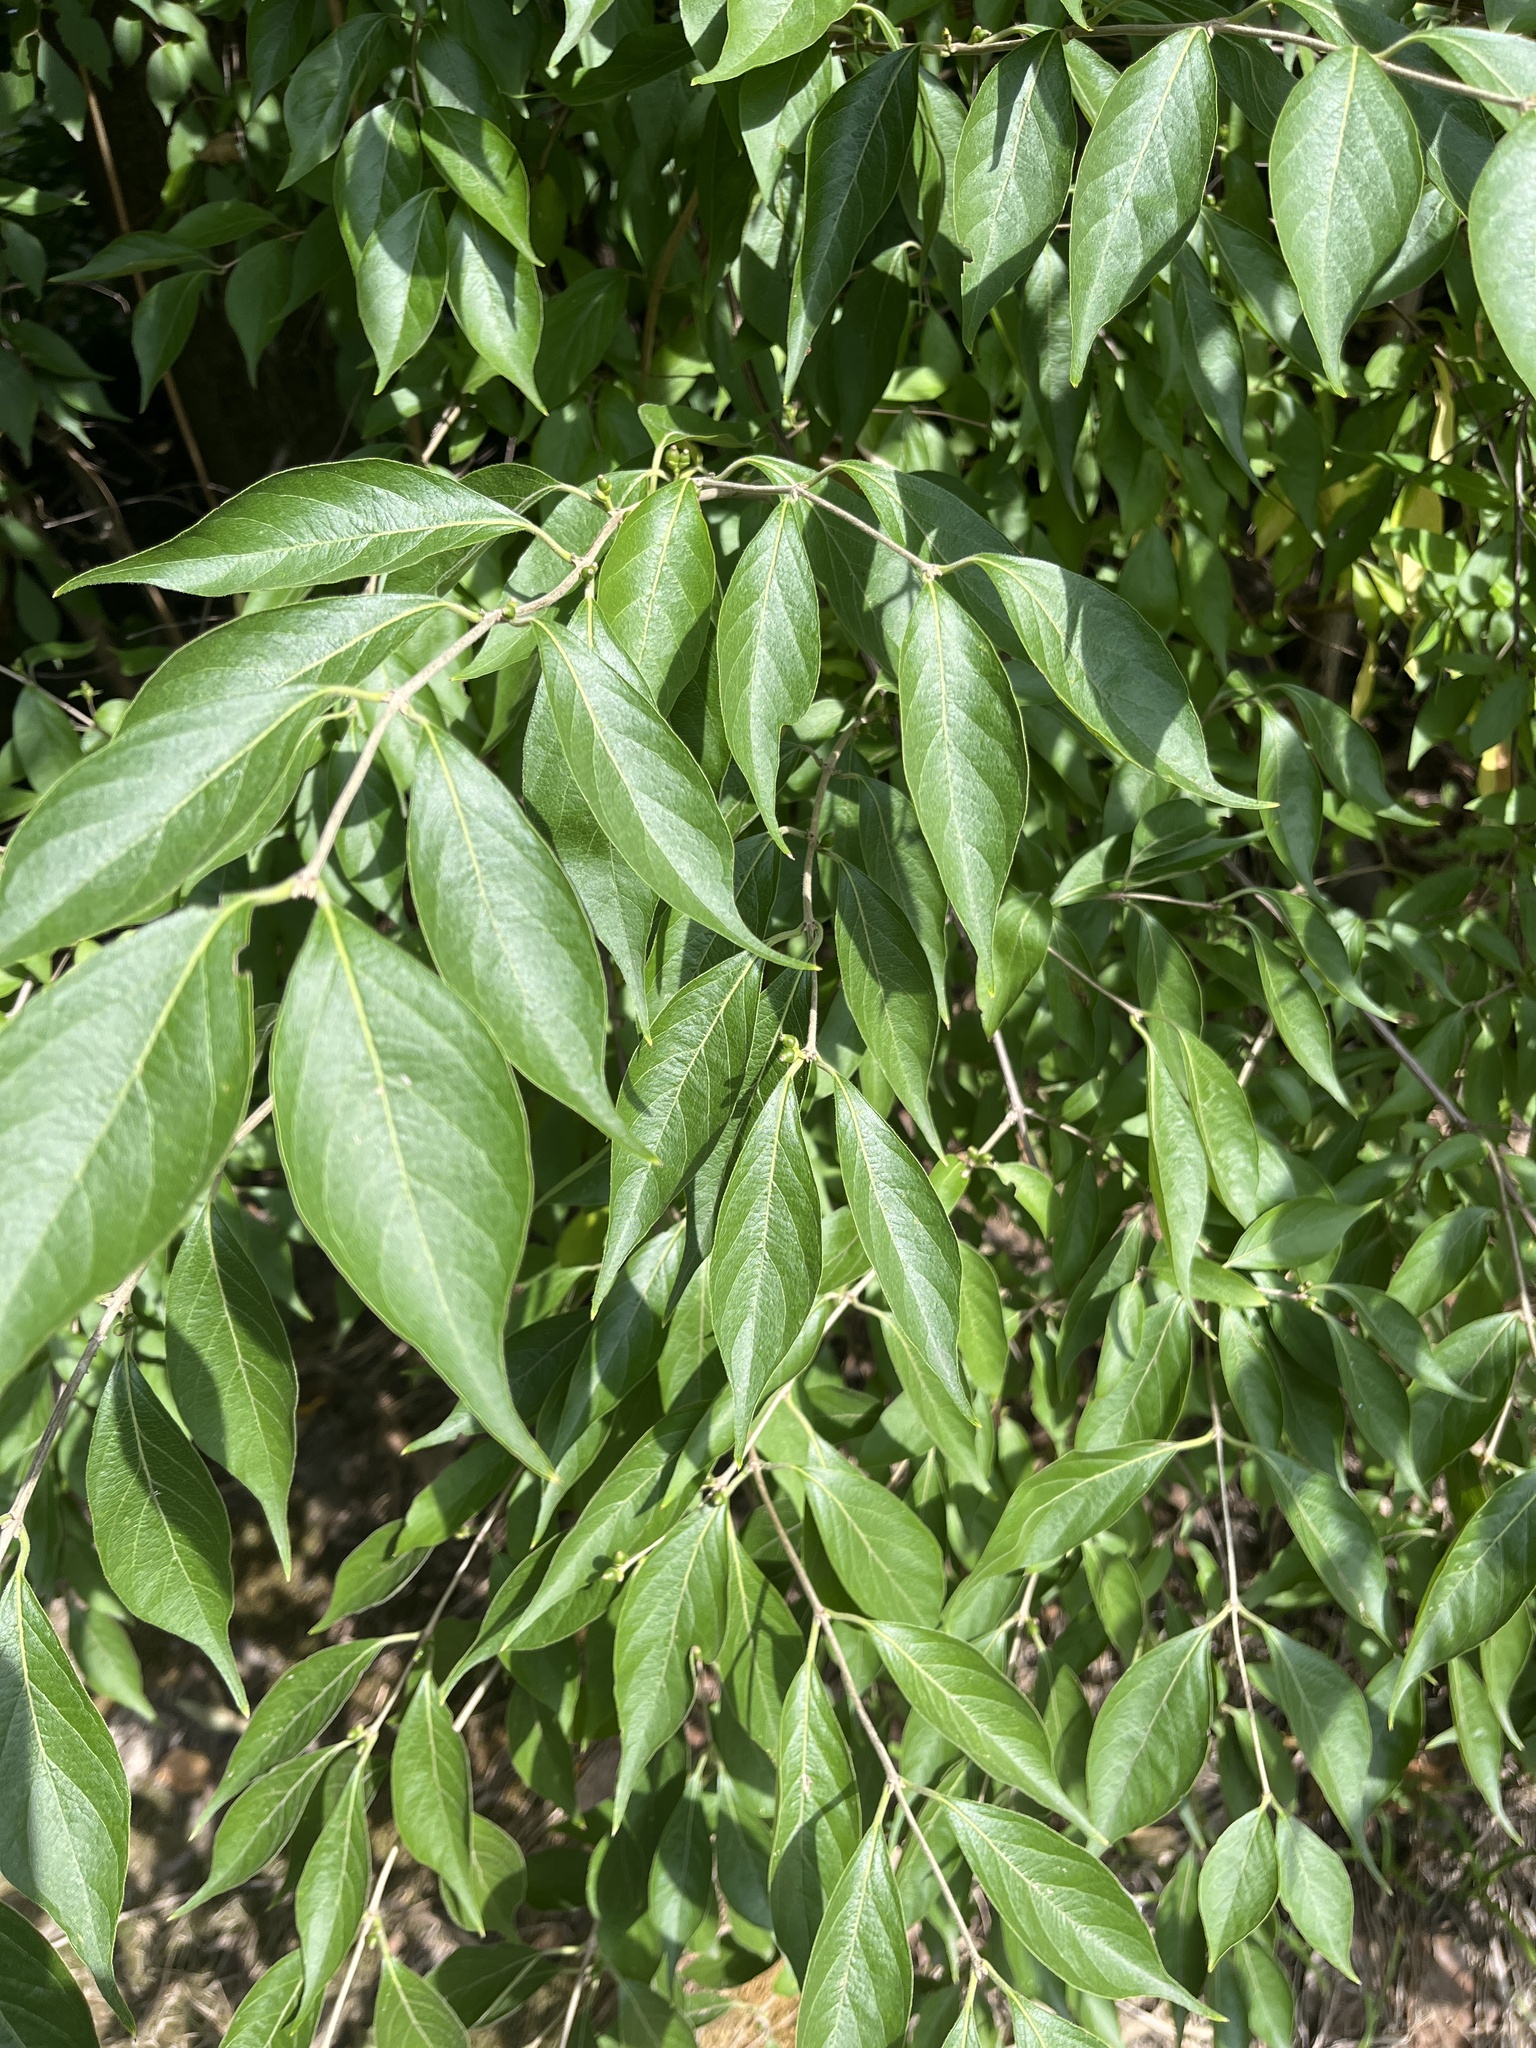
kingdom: Plantae
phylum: Tracheophyta
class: Magnoliopsida
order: Dipsacales
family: Caprifoliaceae
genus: Lonicera
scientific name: Lonicera maackii
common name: Amur honeysuckle
